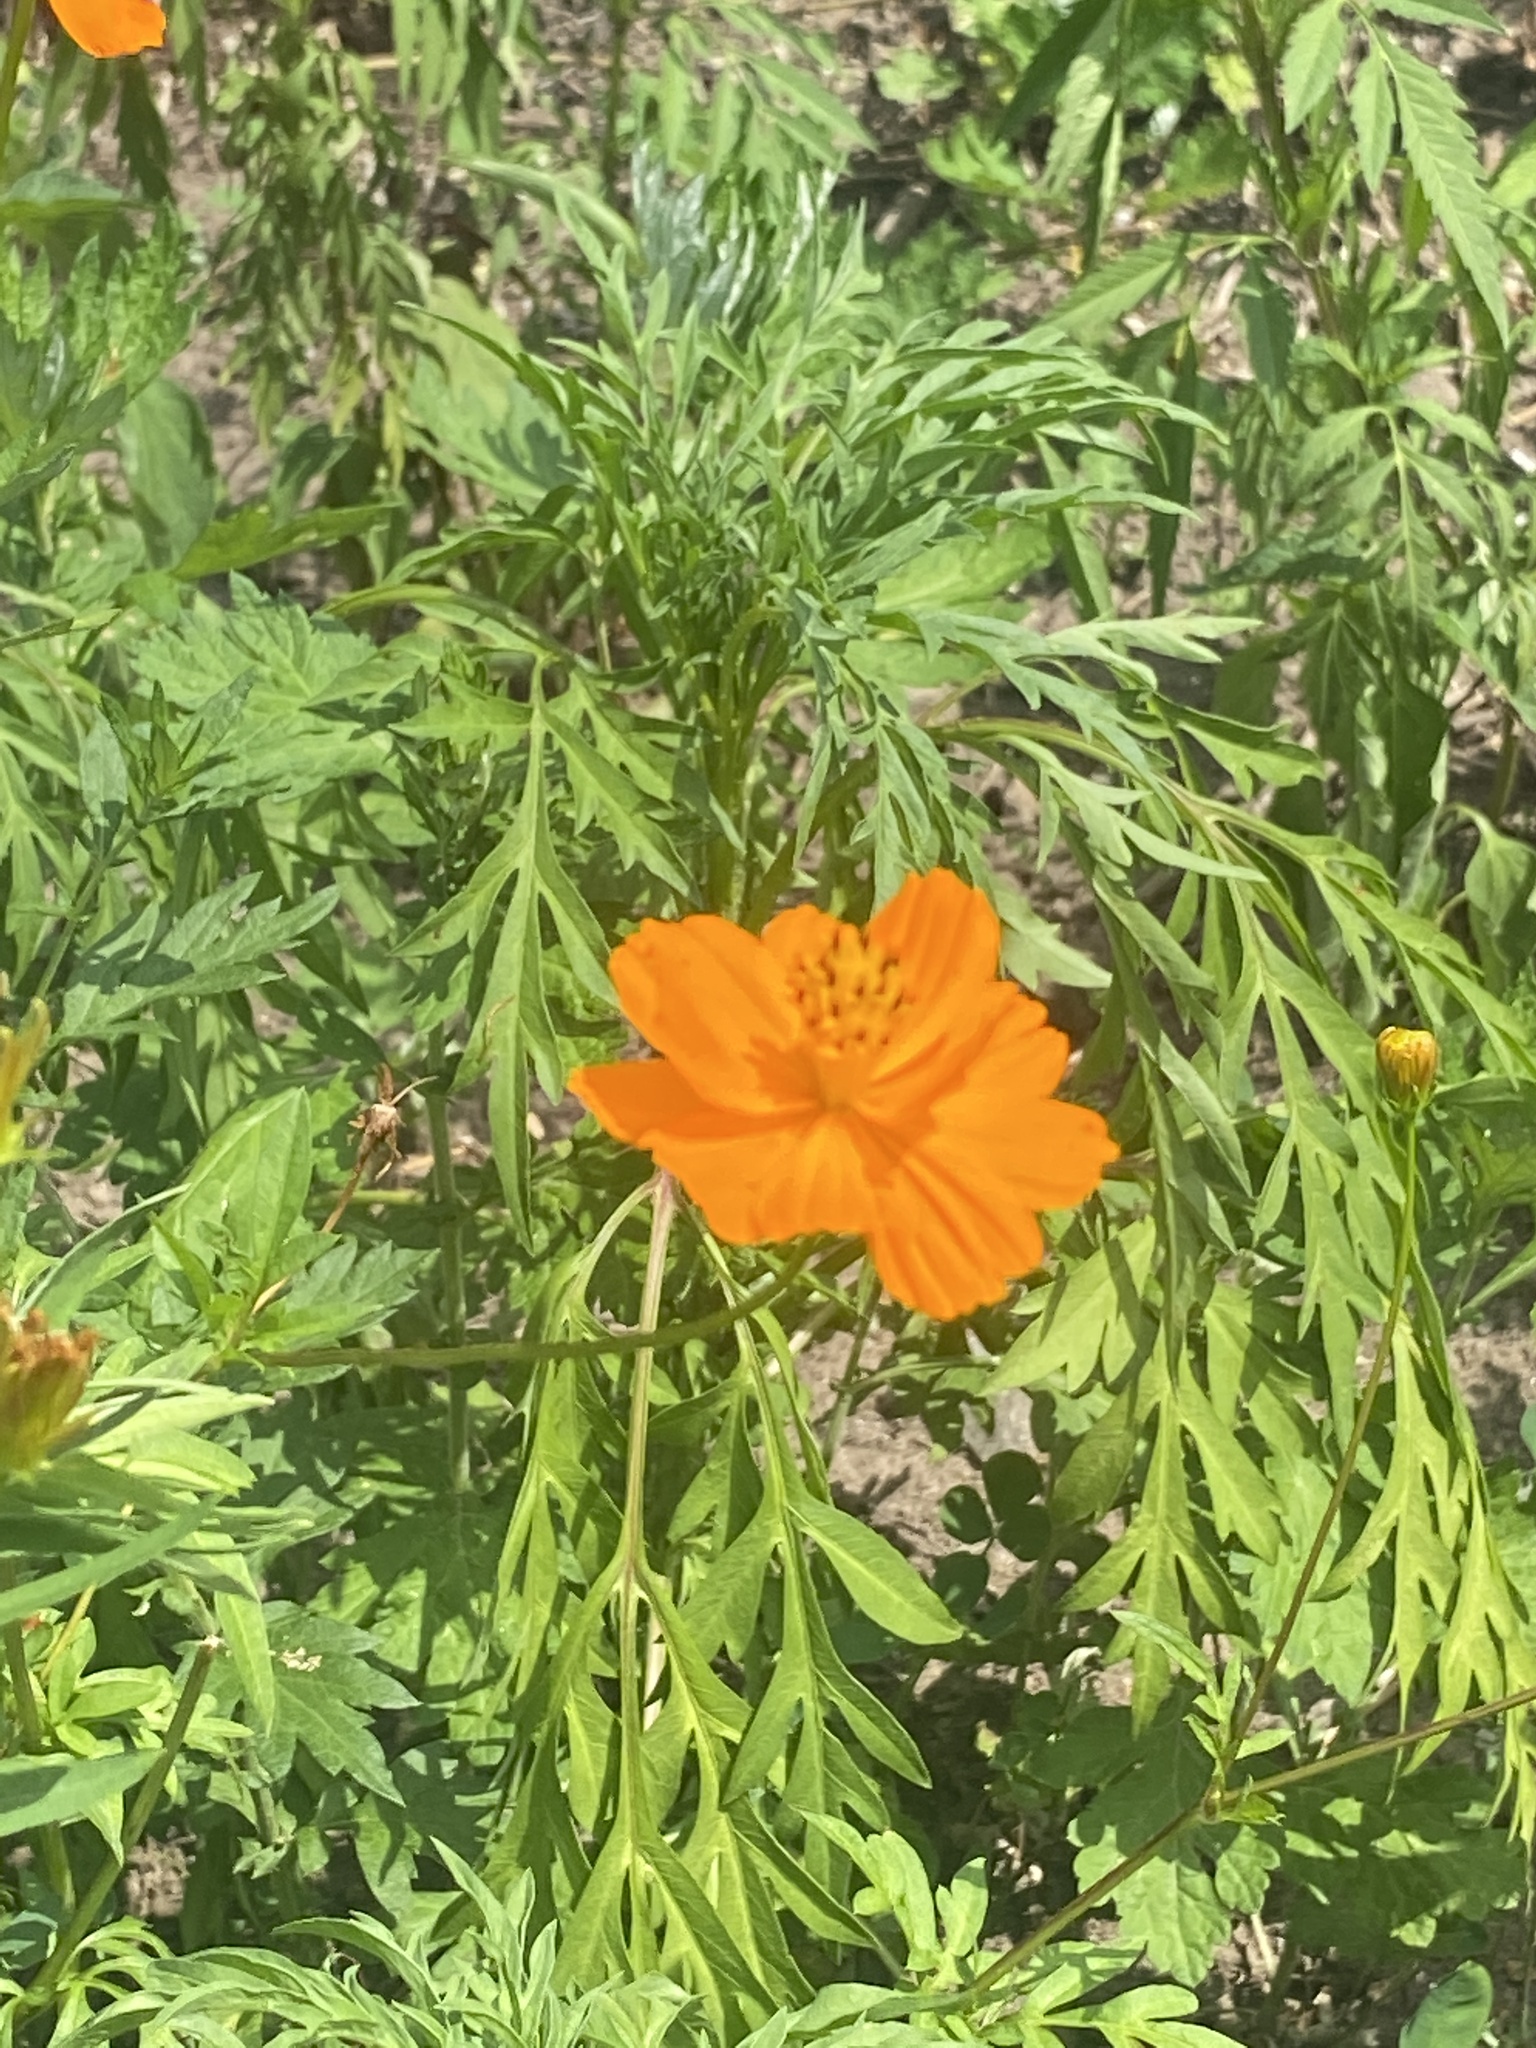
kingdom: Plantae
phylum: Tracheophyta
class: Magnoliopsida
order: Asterales
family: Asteraceae
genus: Cosmos
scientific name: Cosmos sulphureus
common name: Sulphur cosmos
